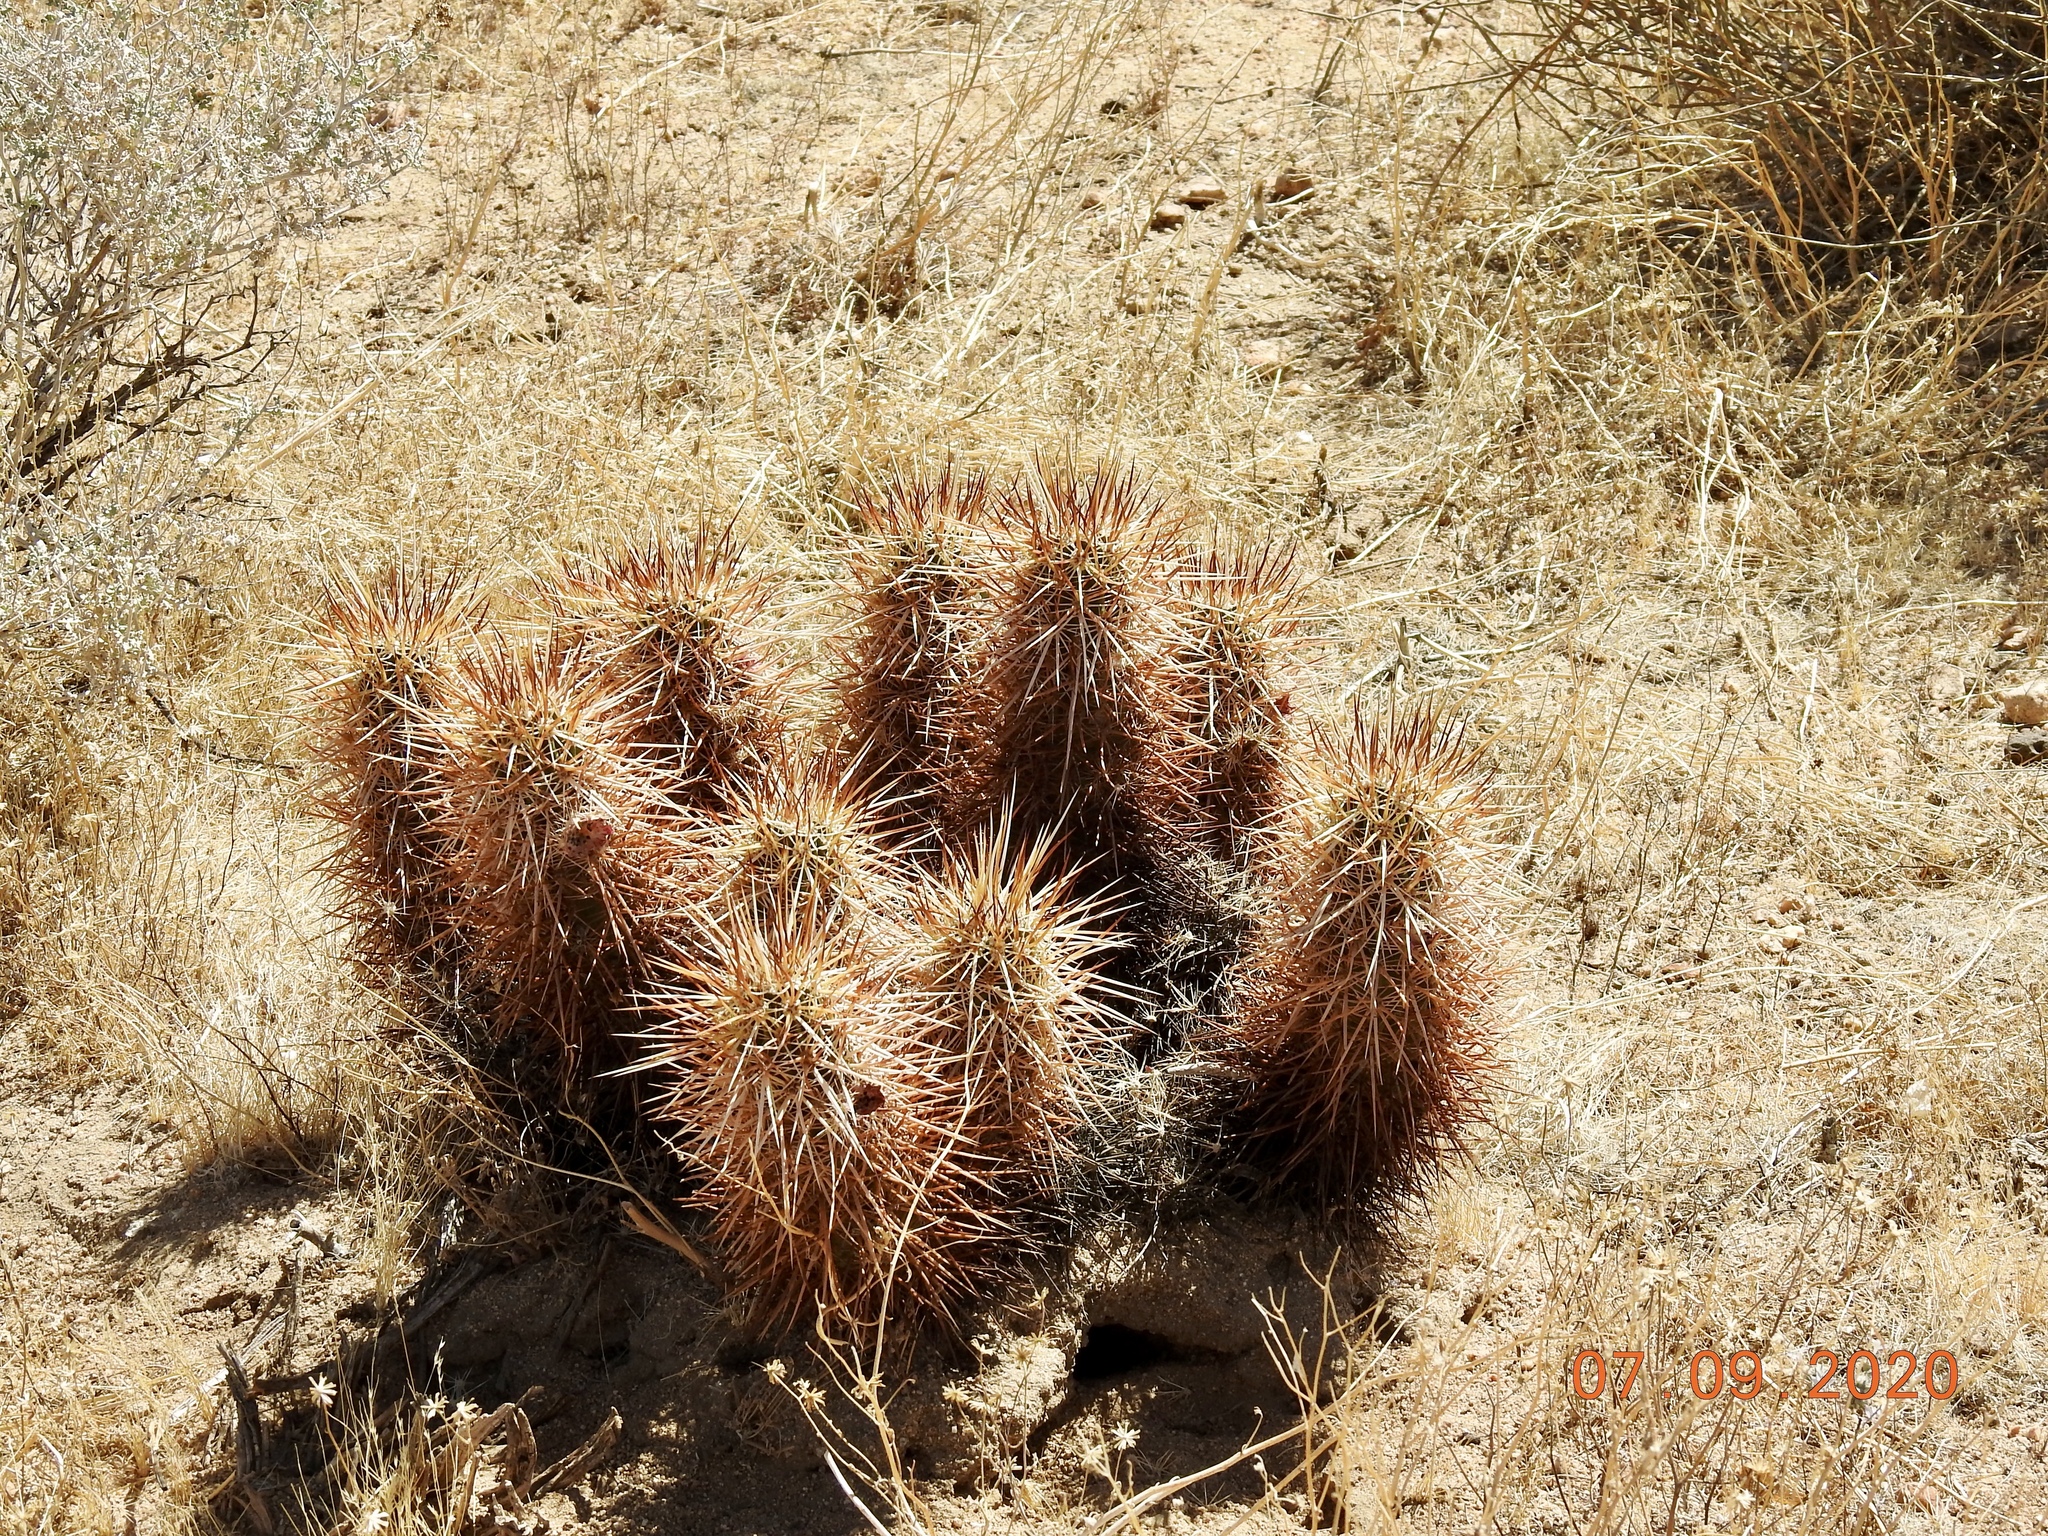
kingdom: Plantae
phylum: Tracheophyta
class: Magnoliopsida
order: Caryophyllales
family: Cactaceae
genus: Echinocereus
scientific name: Echinocereus engelmannii
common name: Engelmann's hedgehog cactus
